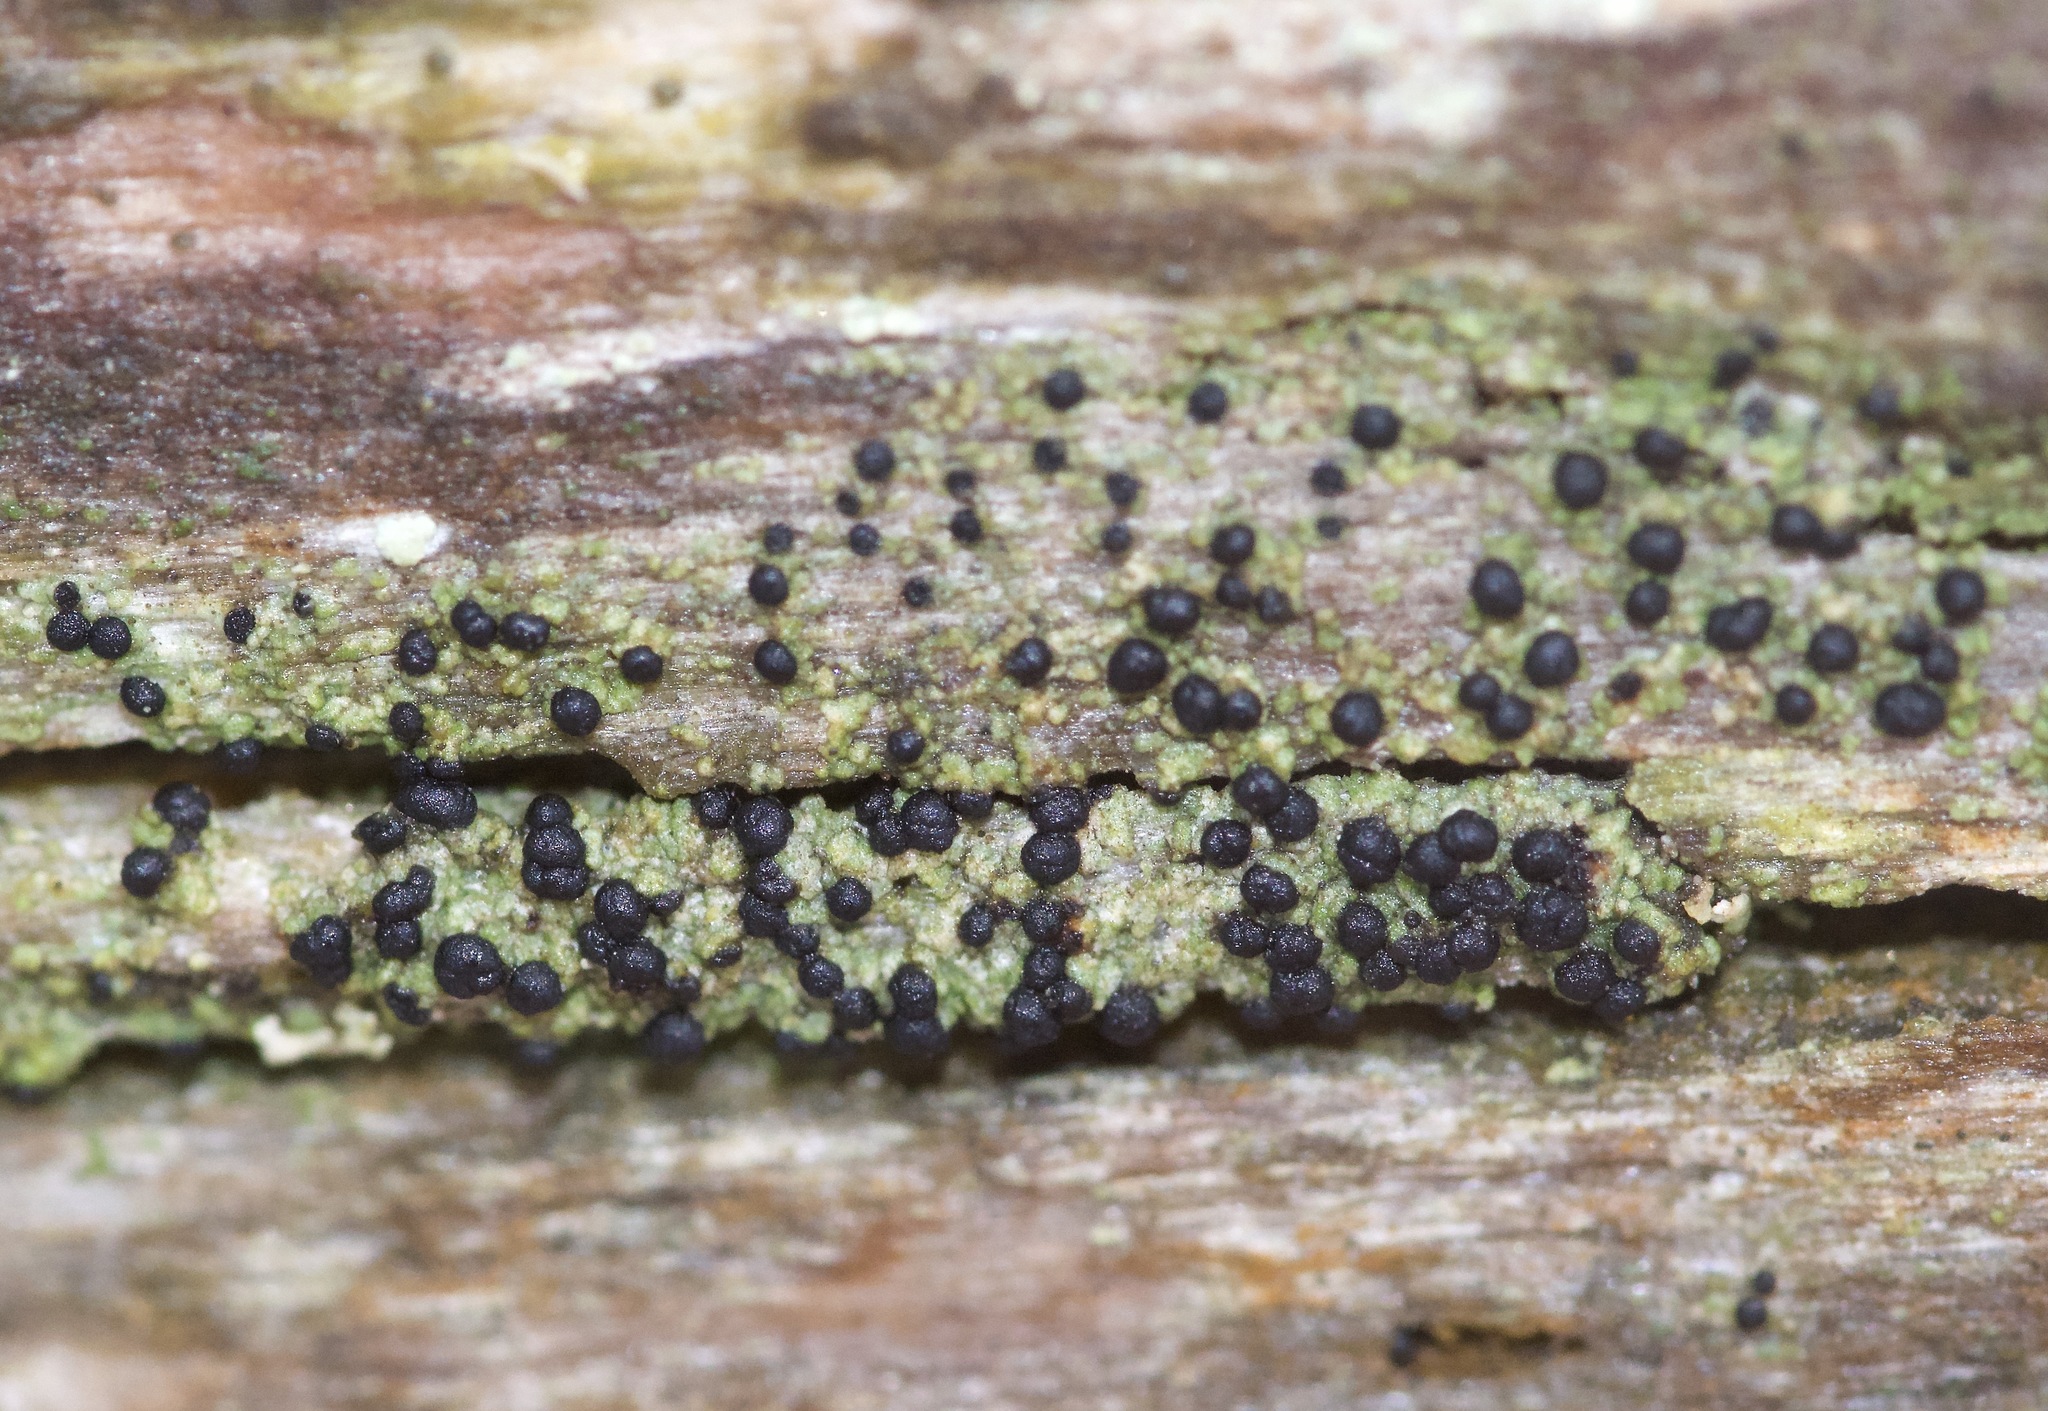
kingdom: Fungi
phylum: Ascomycota
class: Lecanoromycetes
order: Baeomycetales
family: Trapeliaceae
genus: Trapeliopsis
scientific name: Trapeliopsis flexuosa
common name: Board lichen
